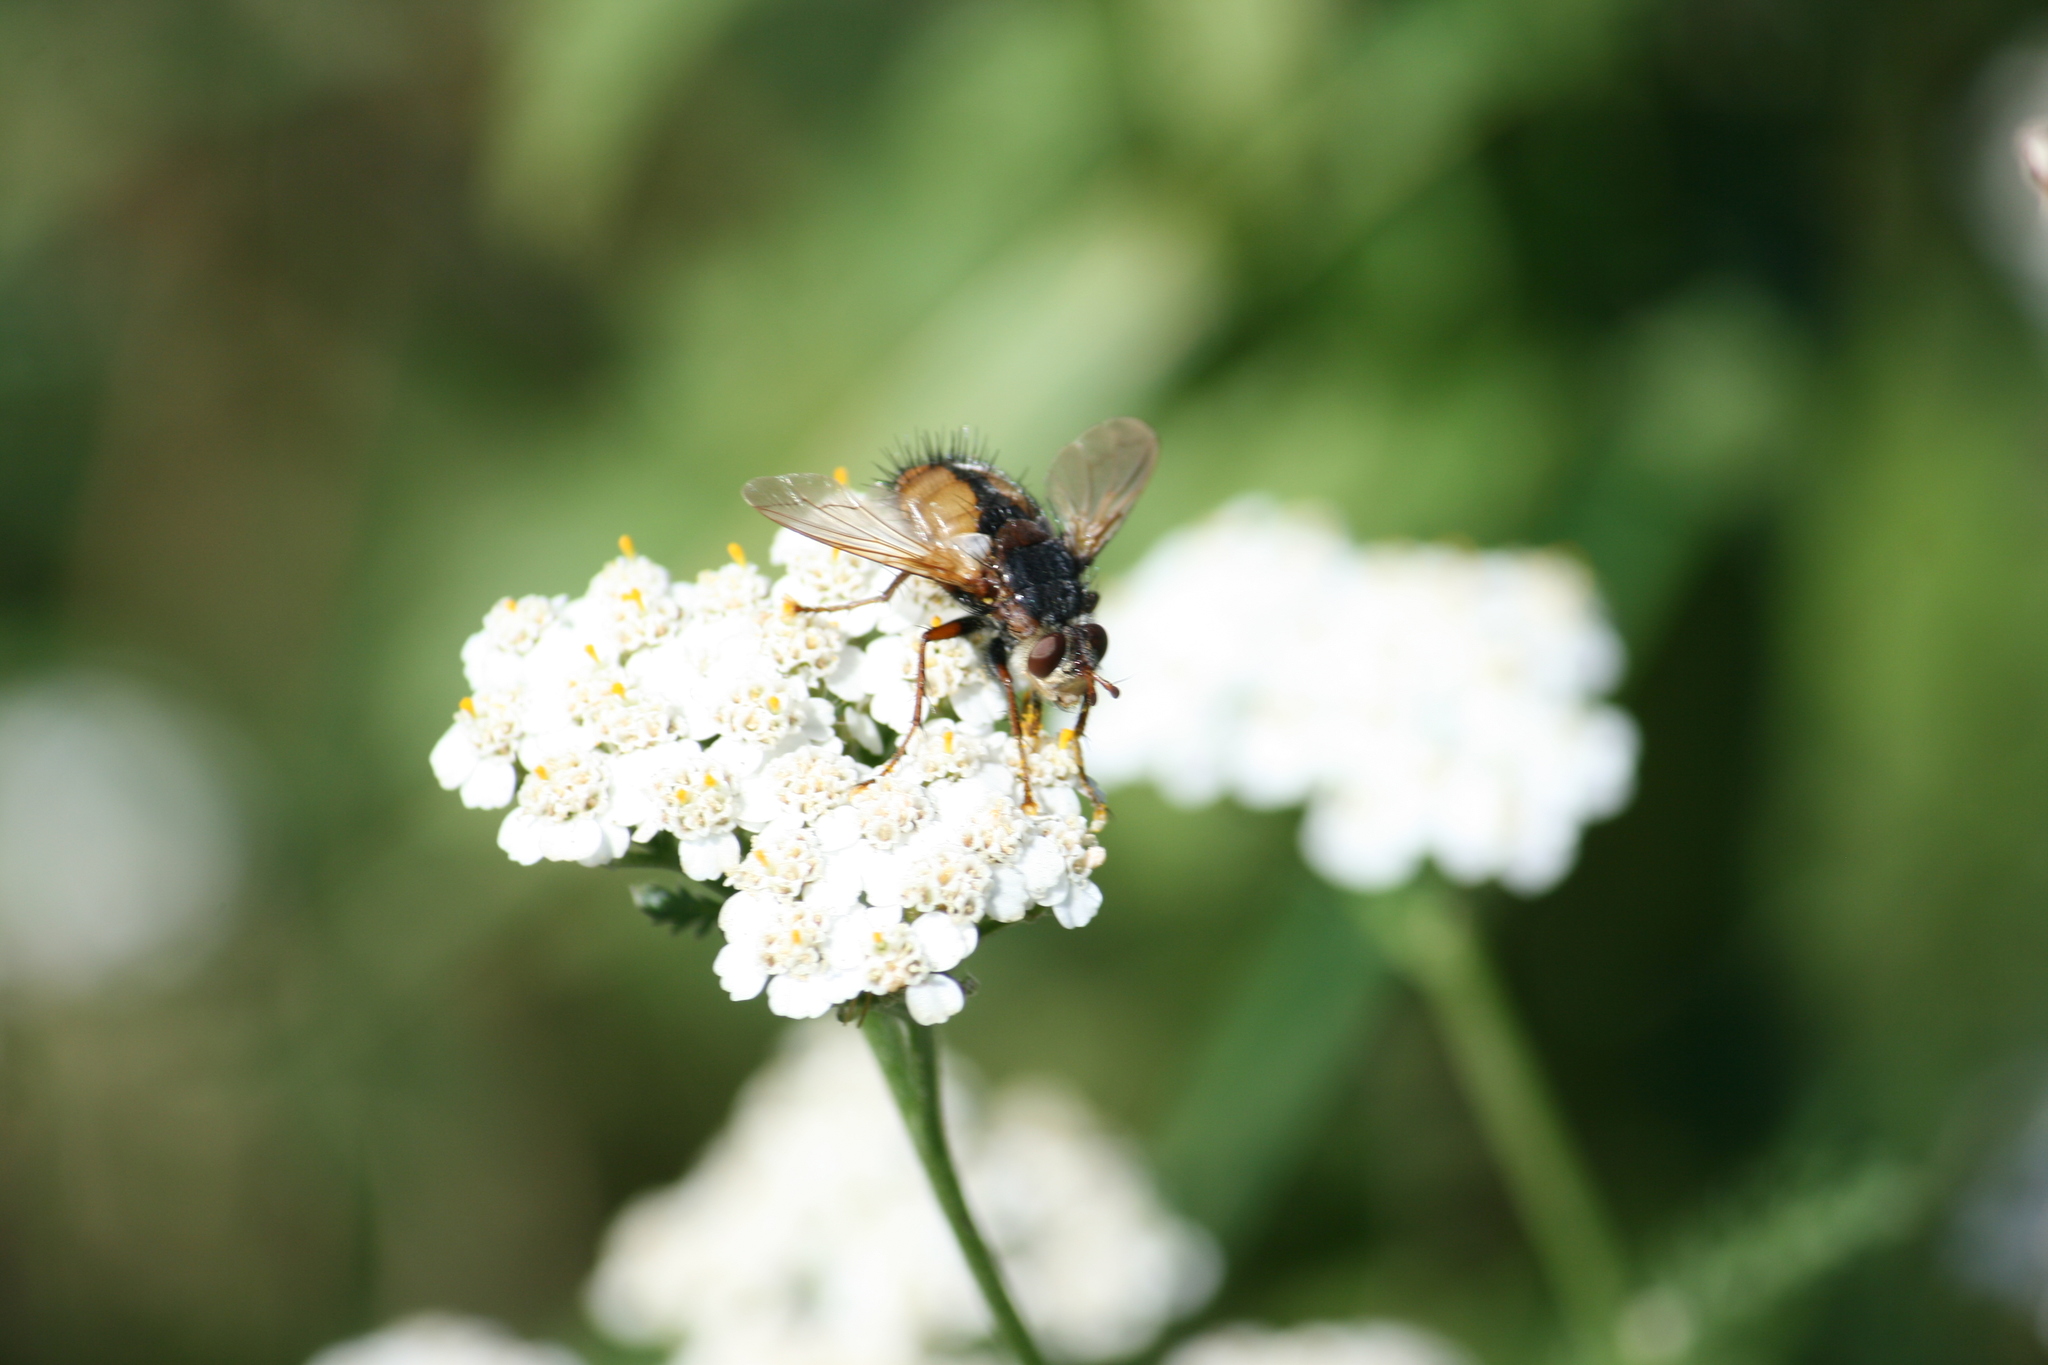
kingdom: Animalia
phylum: Arthropoda
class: Insecta
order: Diptera
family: Tachinidae
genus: Tachina
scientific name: Tachina fera
